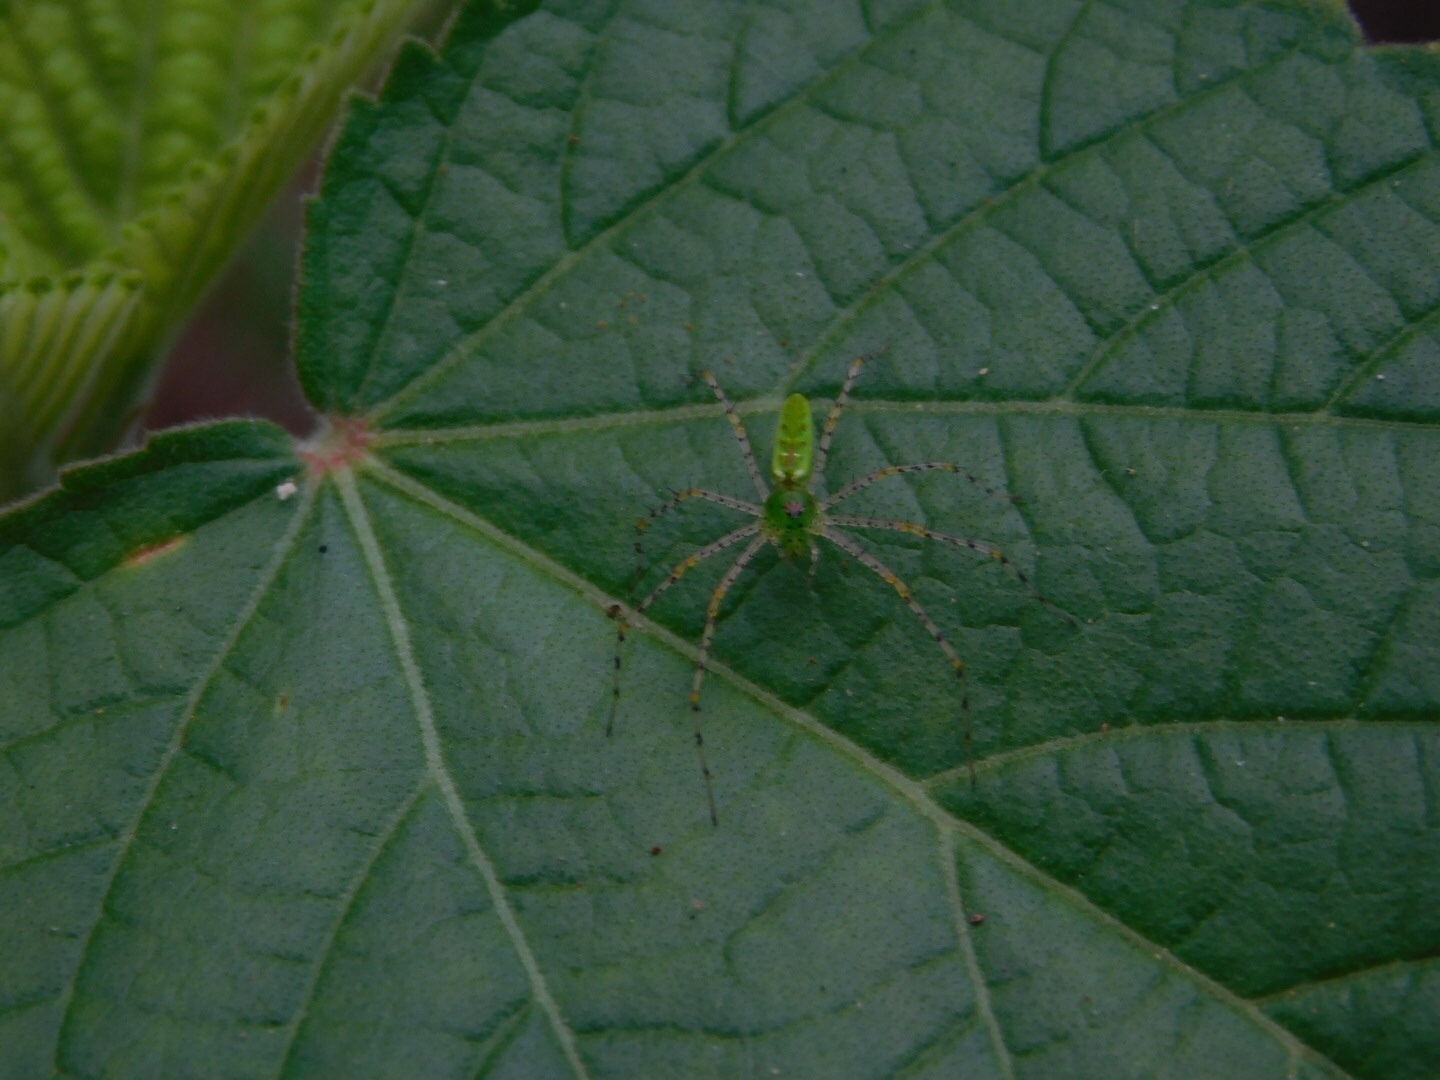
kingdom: Animalia
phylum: Arthropoda
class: Arachnida
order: Araneae
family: Oxyopidae
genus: Peucetia
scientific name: Peucetia viridans
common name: Lynx spiders
